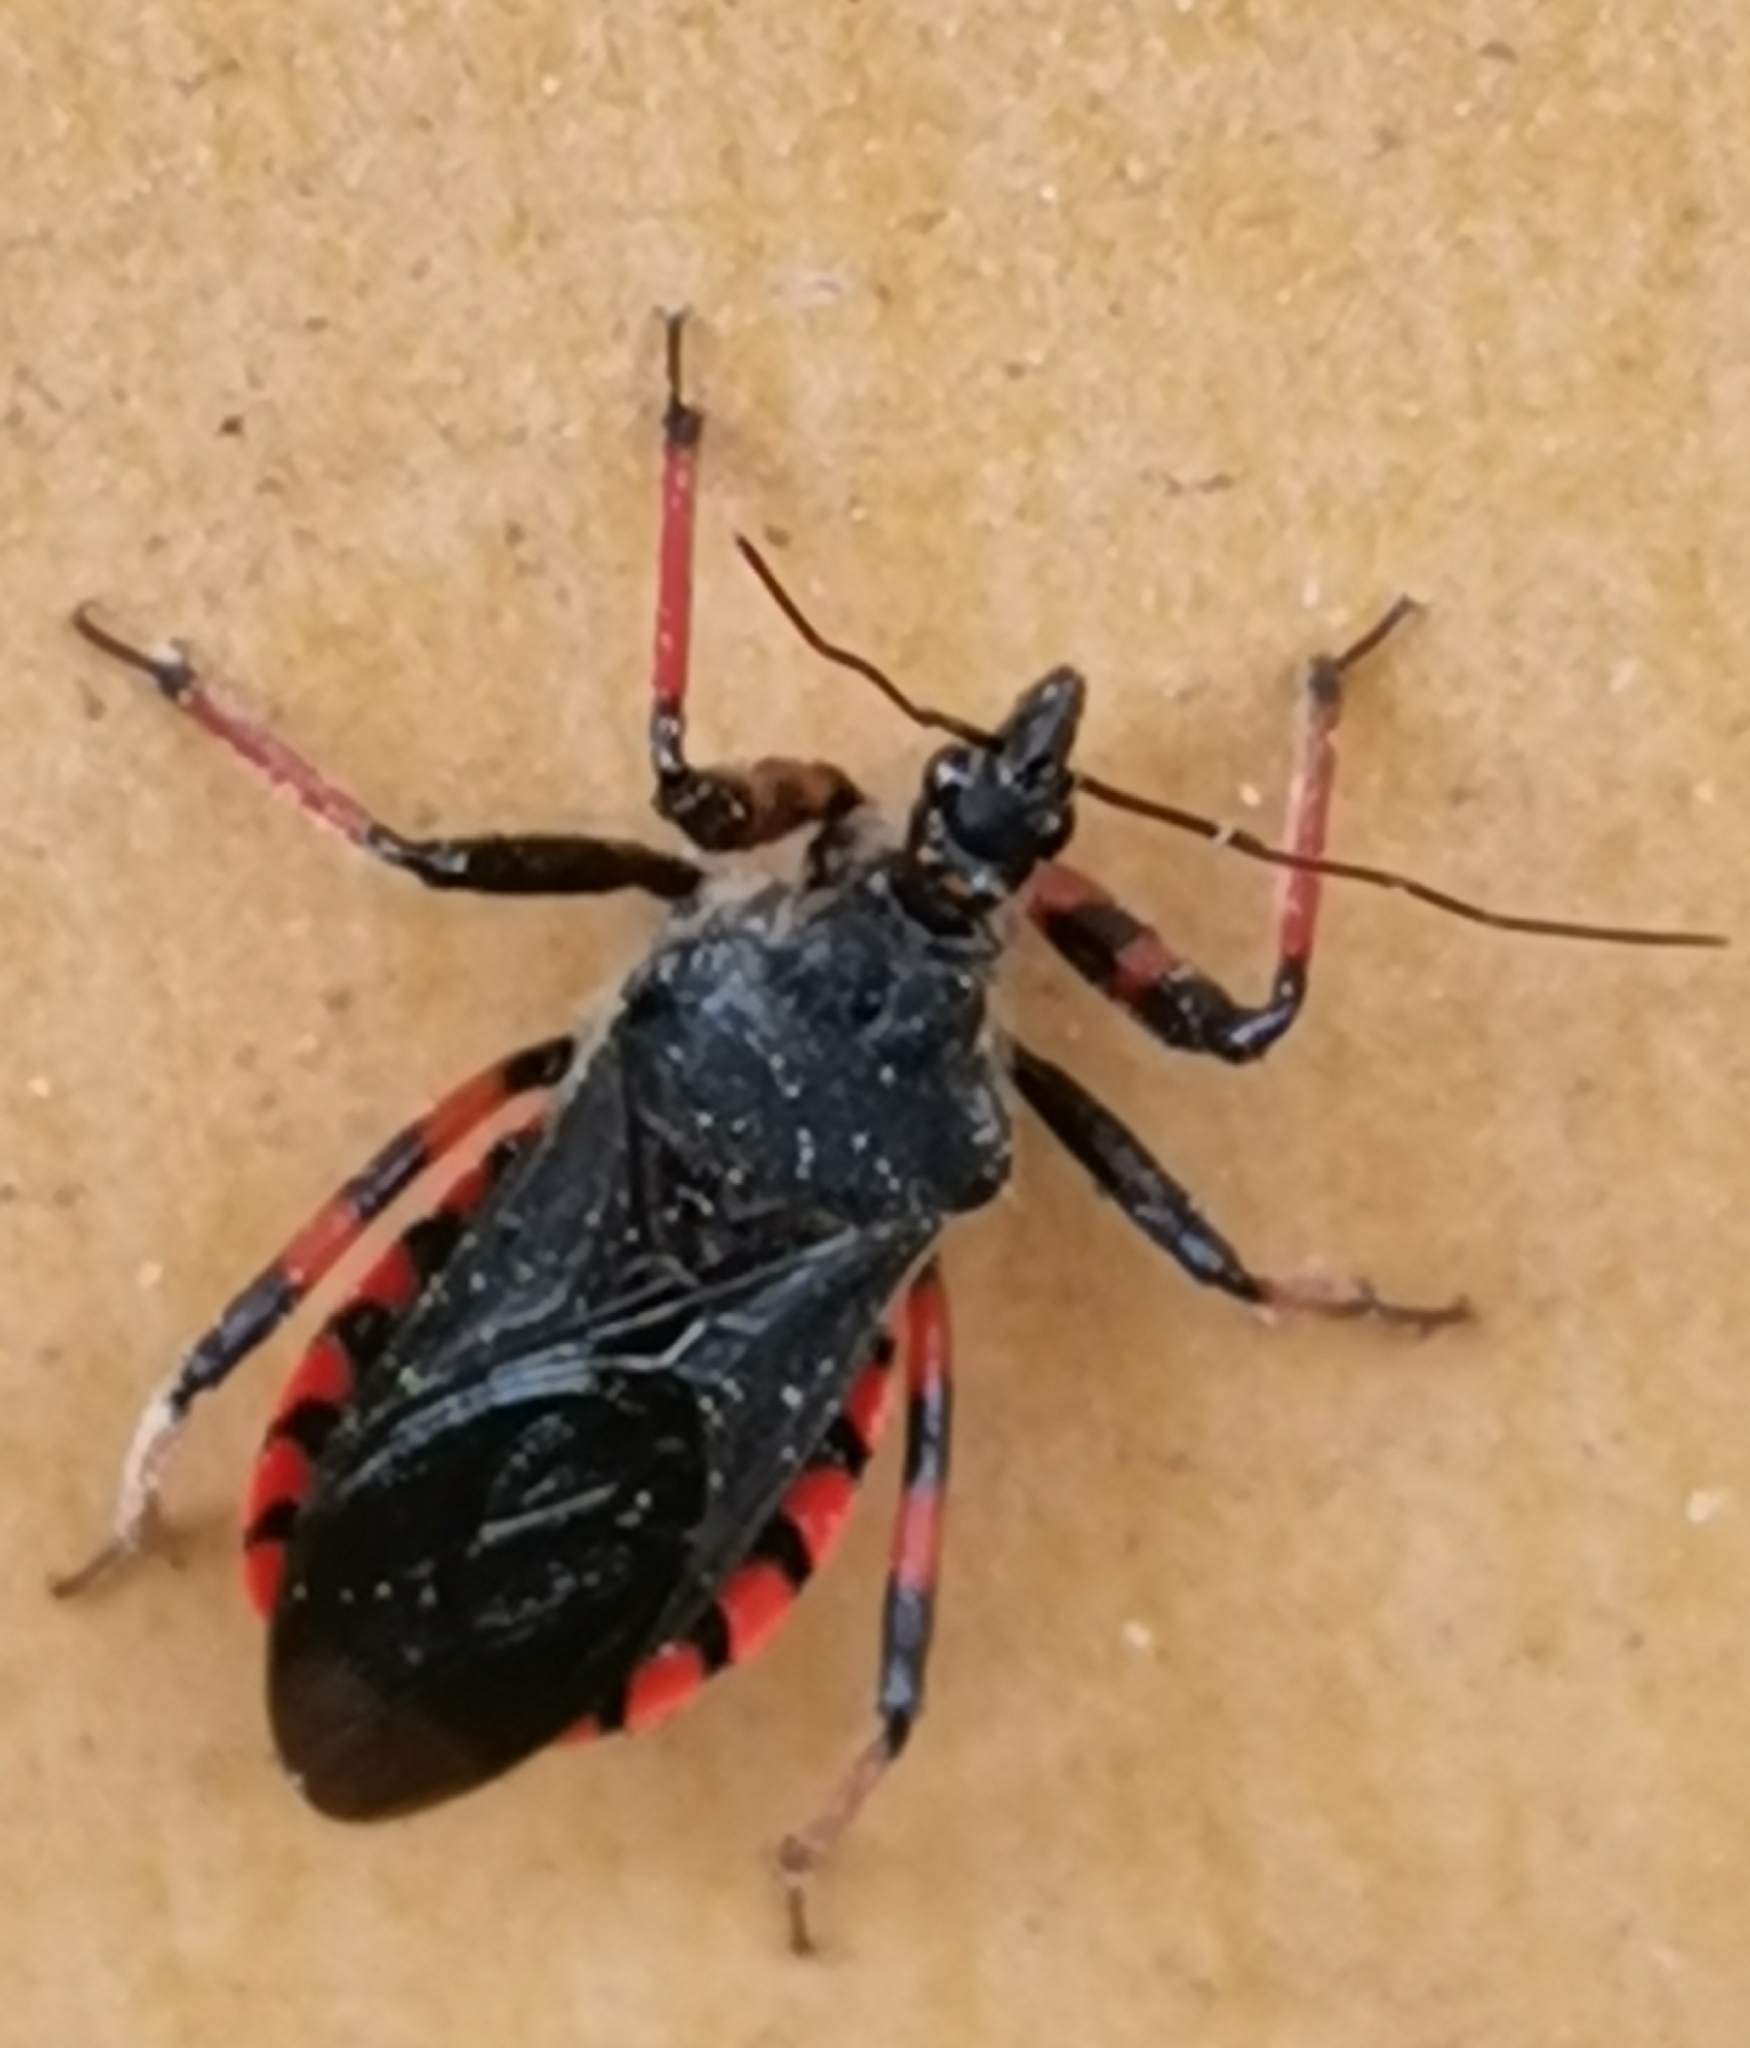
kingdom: Animalia
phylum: Arthropoda
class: Insecta
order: Hemiptera
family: Reduviidae
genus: Rhynocoris
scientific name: Rhynocoris annulatus
